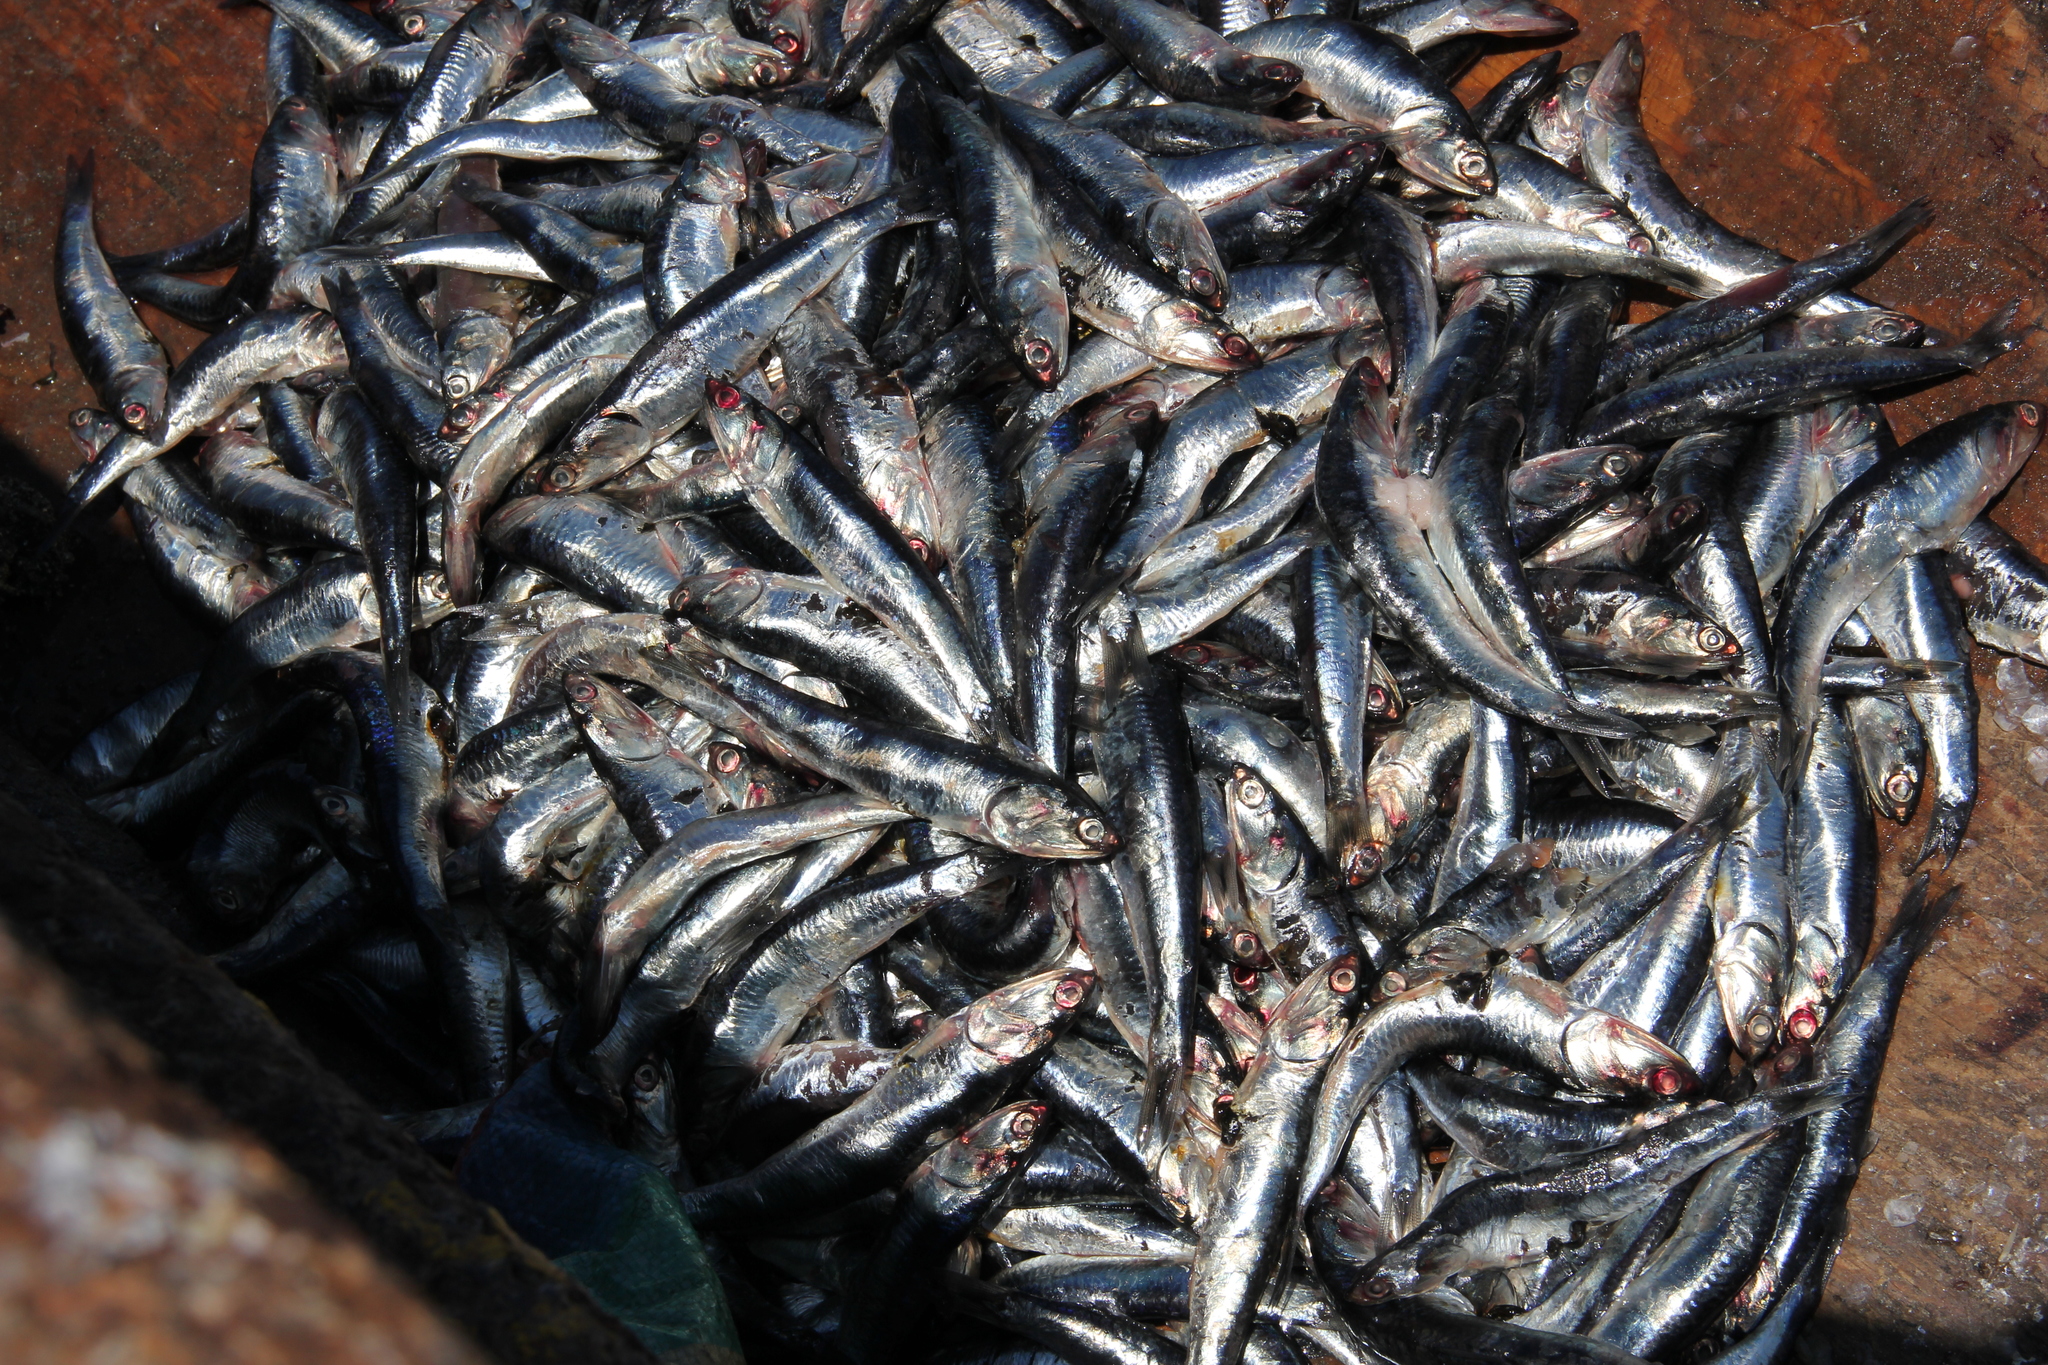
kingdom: Animalia
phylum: Chordata
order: Clupeiformes
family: Engraulidae
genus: Engraulis
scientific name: Engraulis ringens
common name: Peruvian anchovy
